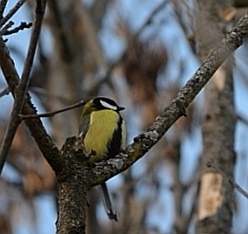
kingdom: Animalia
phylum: Chordata
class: Aves
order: Passeriformes
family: Paridae
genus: Parus
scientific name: Parus major
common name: Great tit
